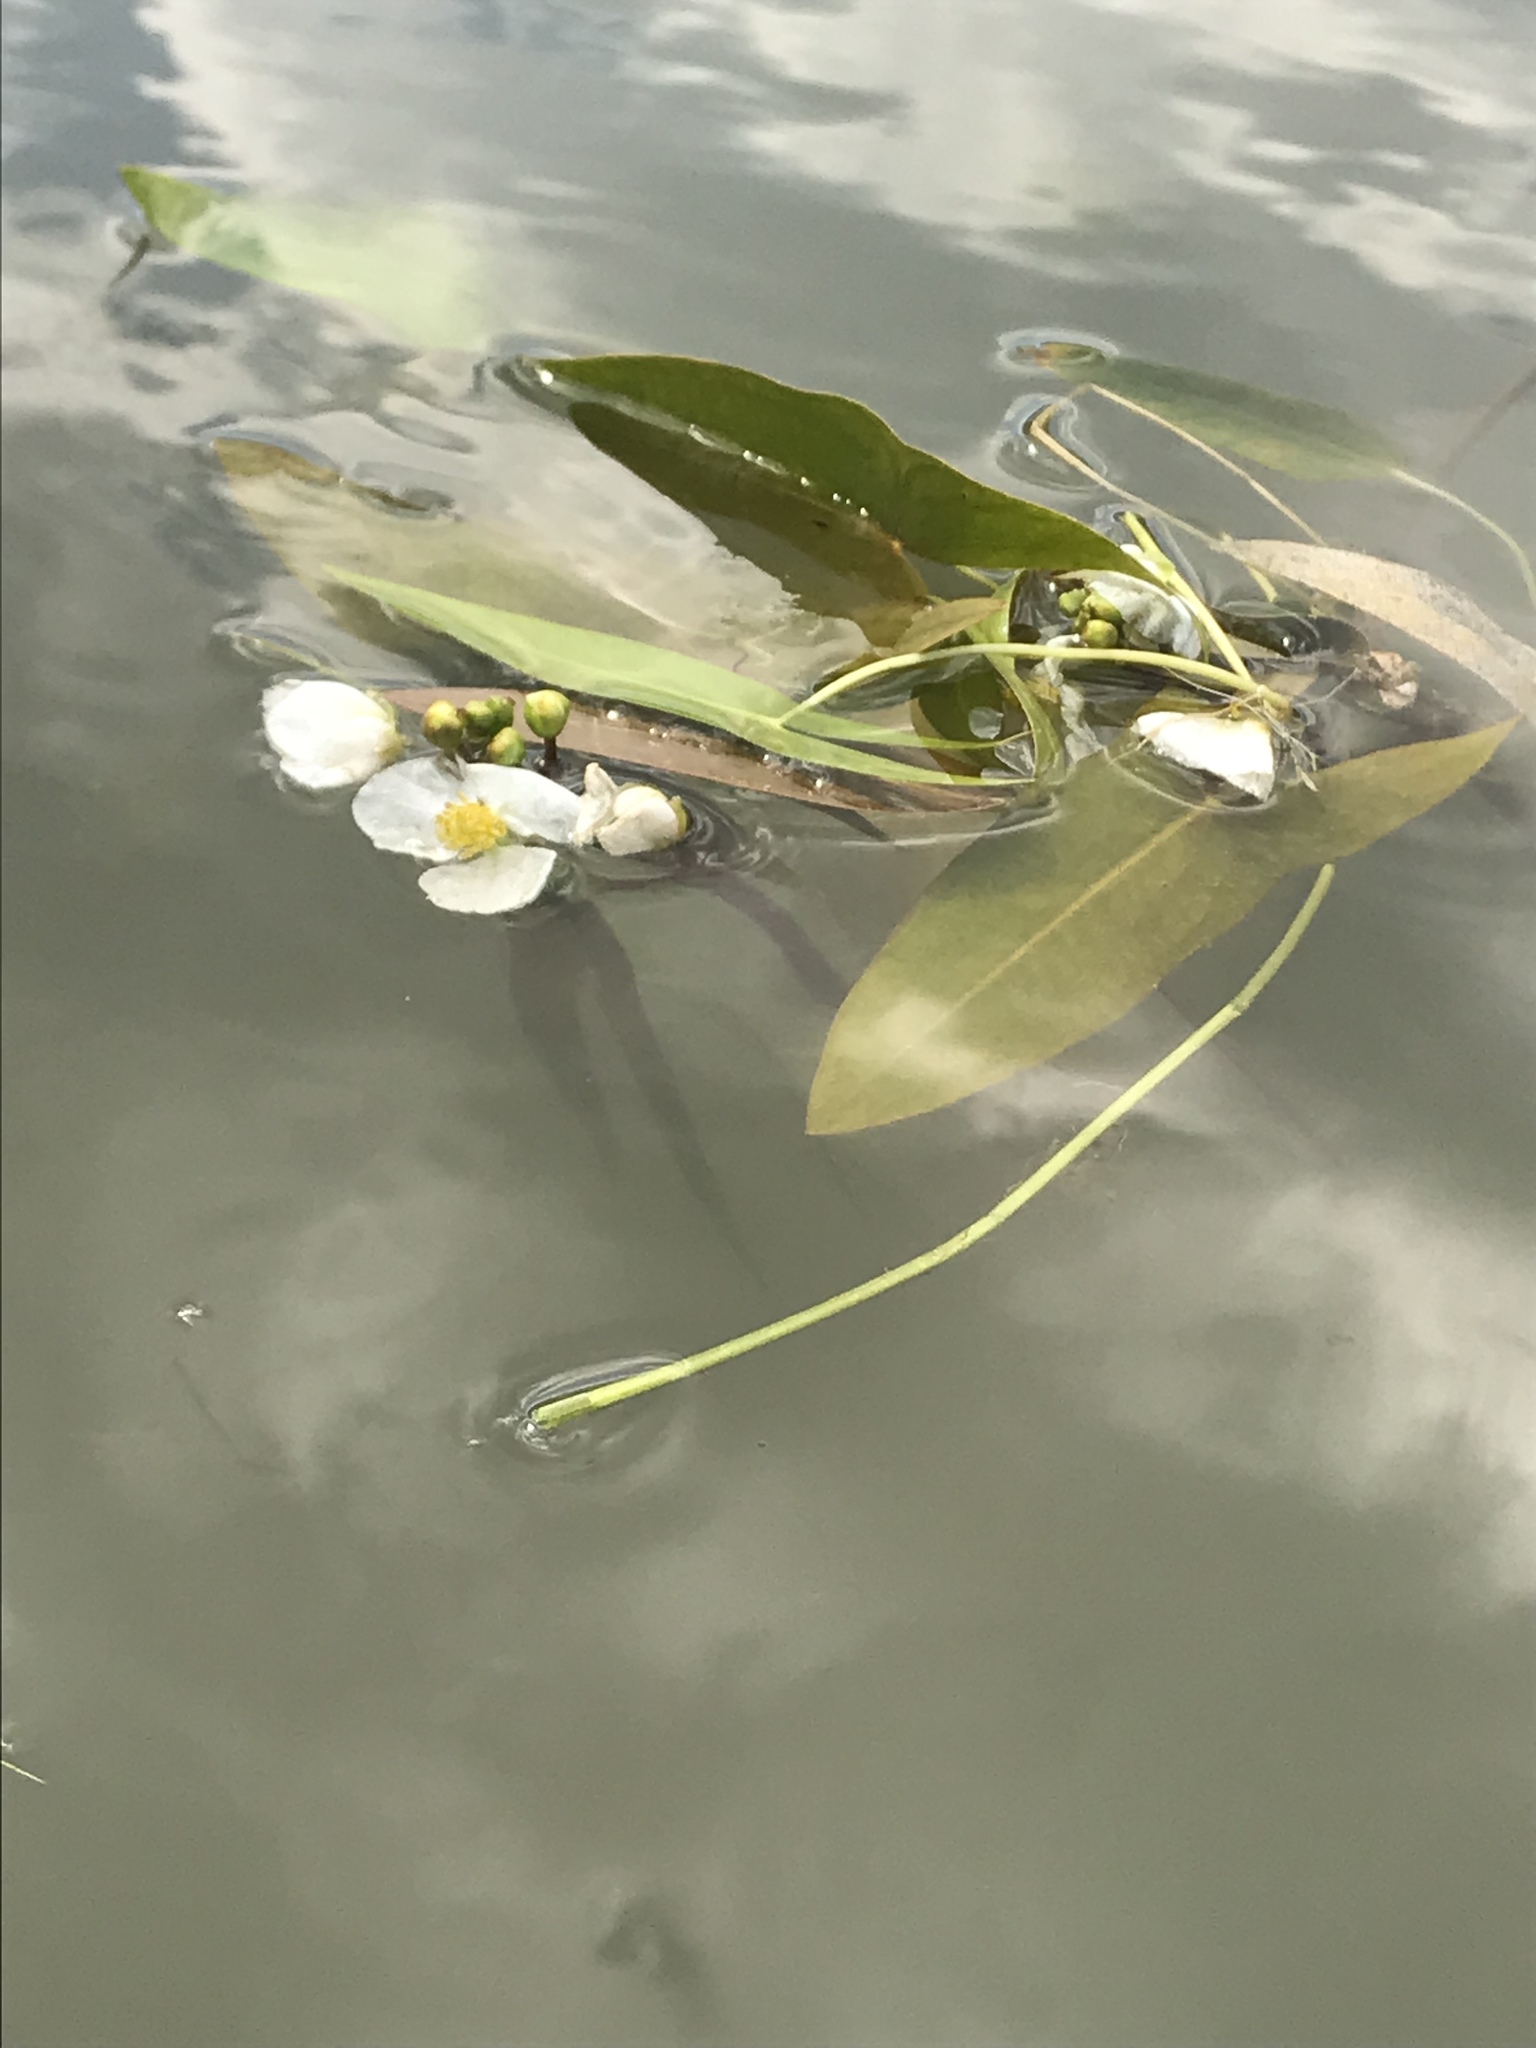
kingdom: Plantae
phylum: Tracheophyta
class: Liliopsida
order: Alismatales
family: Alismataceae
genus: Sagittaria
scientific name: Sagittaria cuneata
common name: Northern arrowhead
